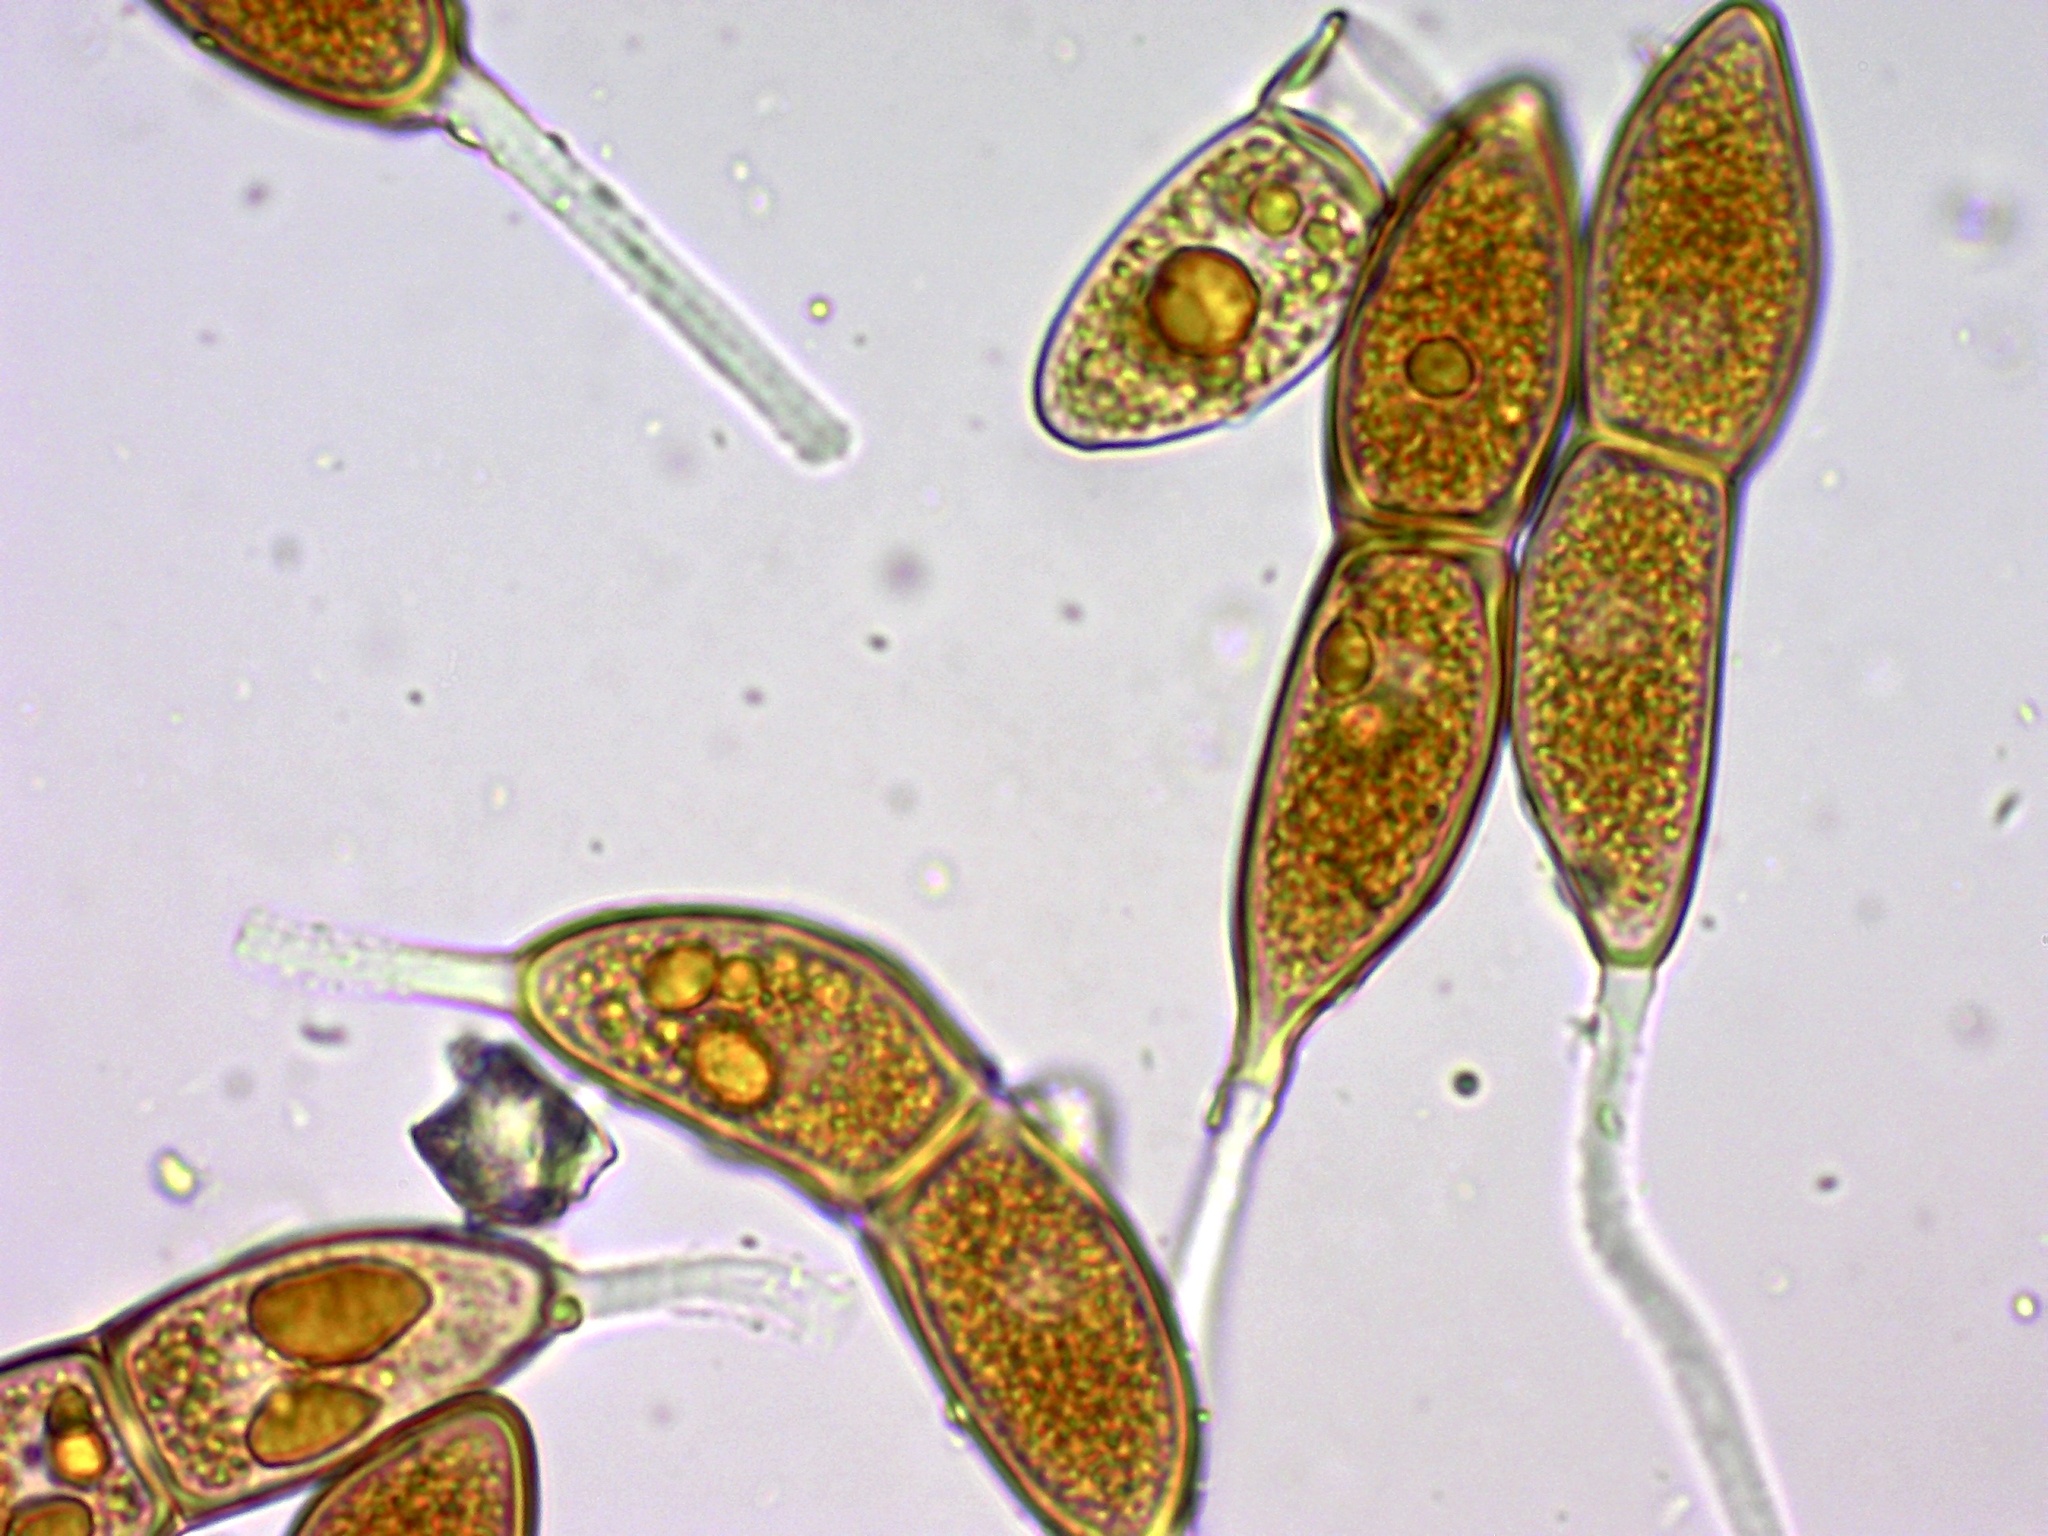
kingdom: Fungi
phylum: Basidiomycota
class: Pucciniomycetes
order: Pucciniales
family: Gymnosporangiaceae
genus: Gymnosporangium
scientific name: Gymnosporangium juniperi-virginianae
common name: Juniper-apple rust
